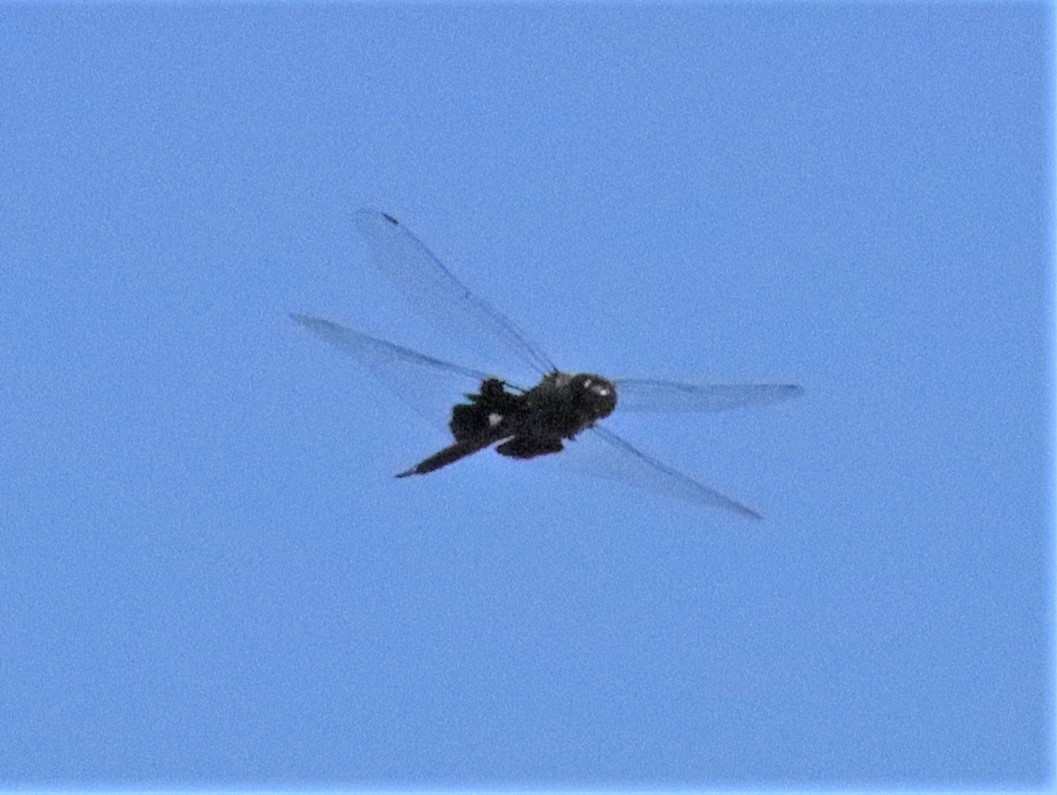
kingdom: Animalia
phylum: Arthropoda
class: Insecta
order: Odonata
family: Libellulidae
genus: Tramea
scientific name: Tramea lacerata
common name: Black saddlebags
